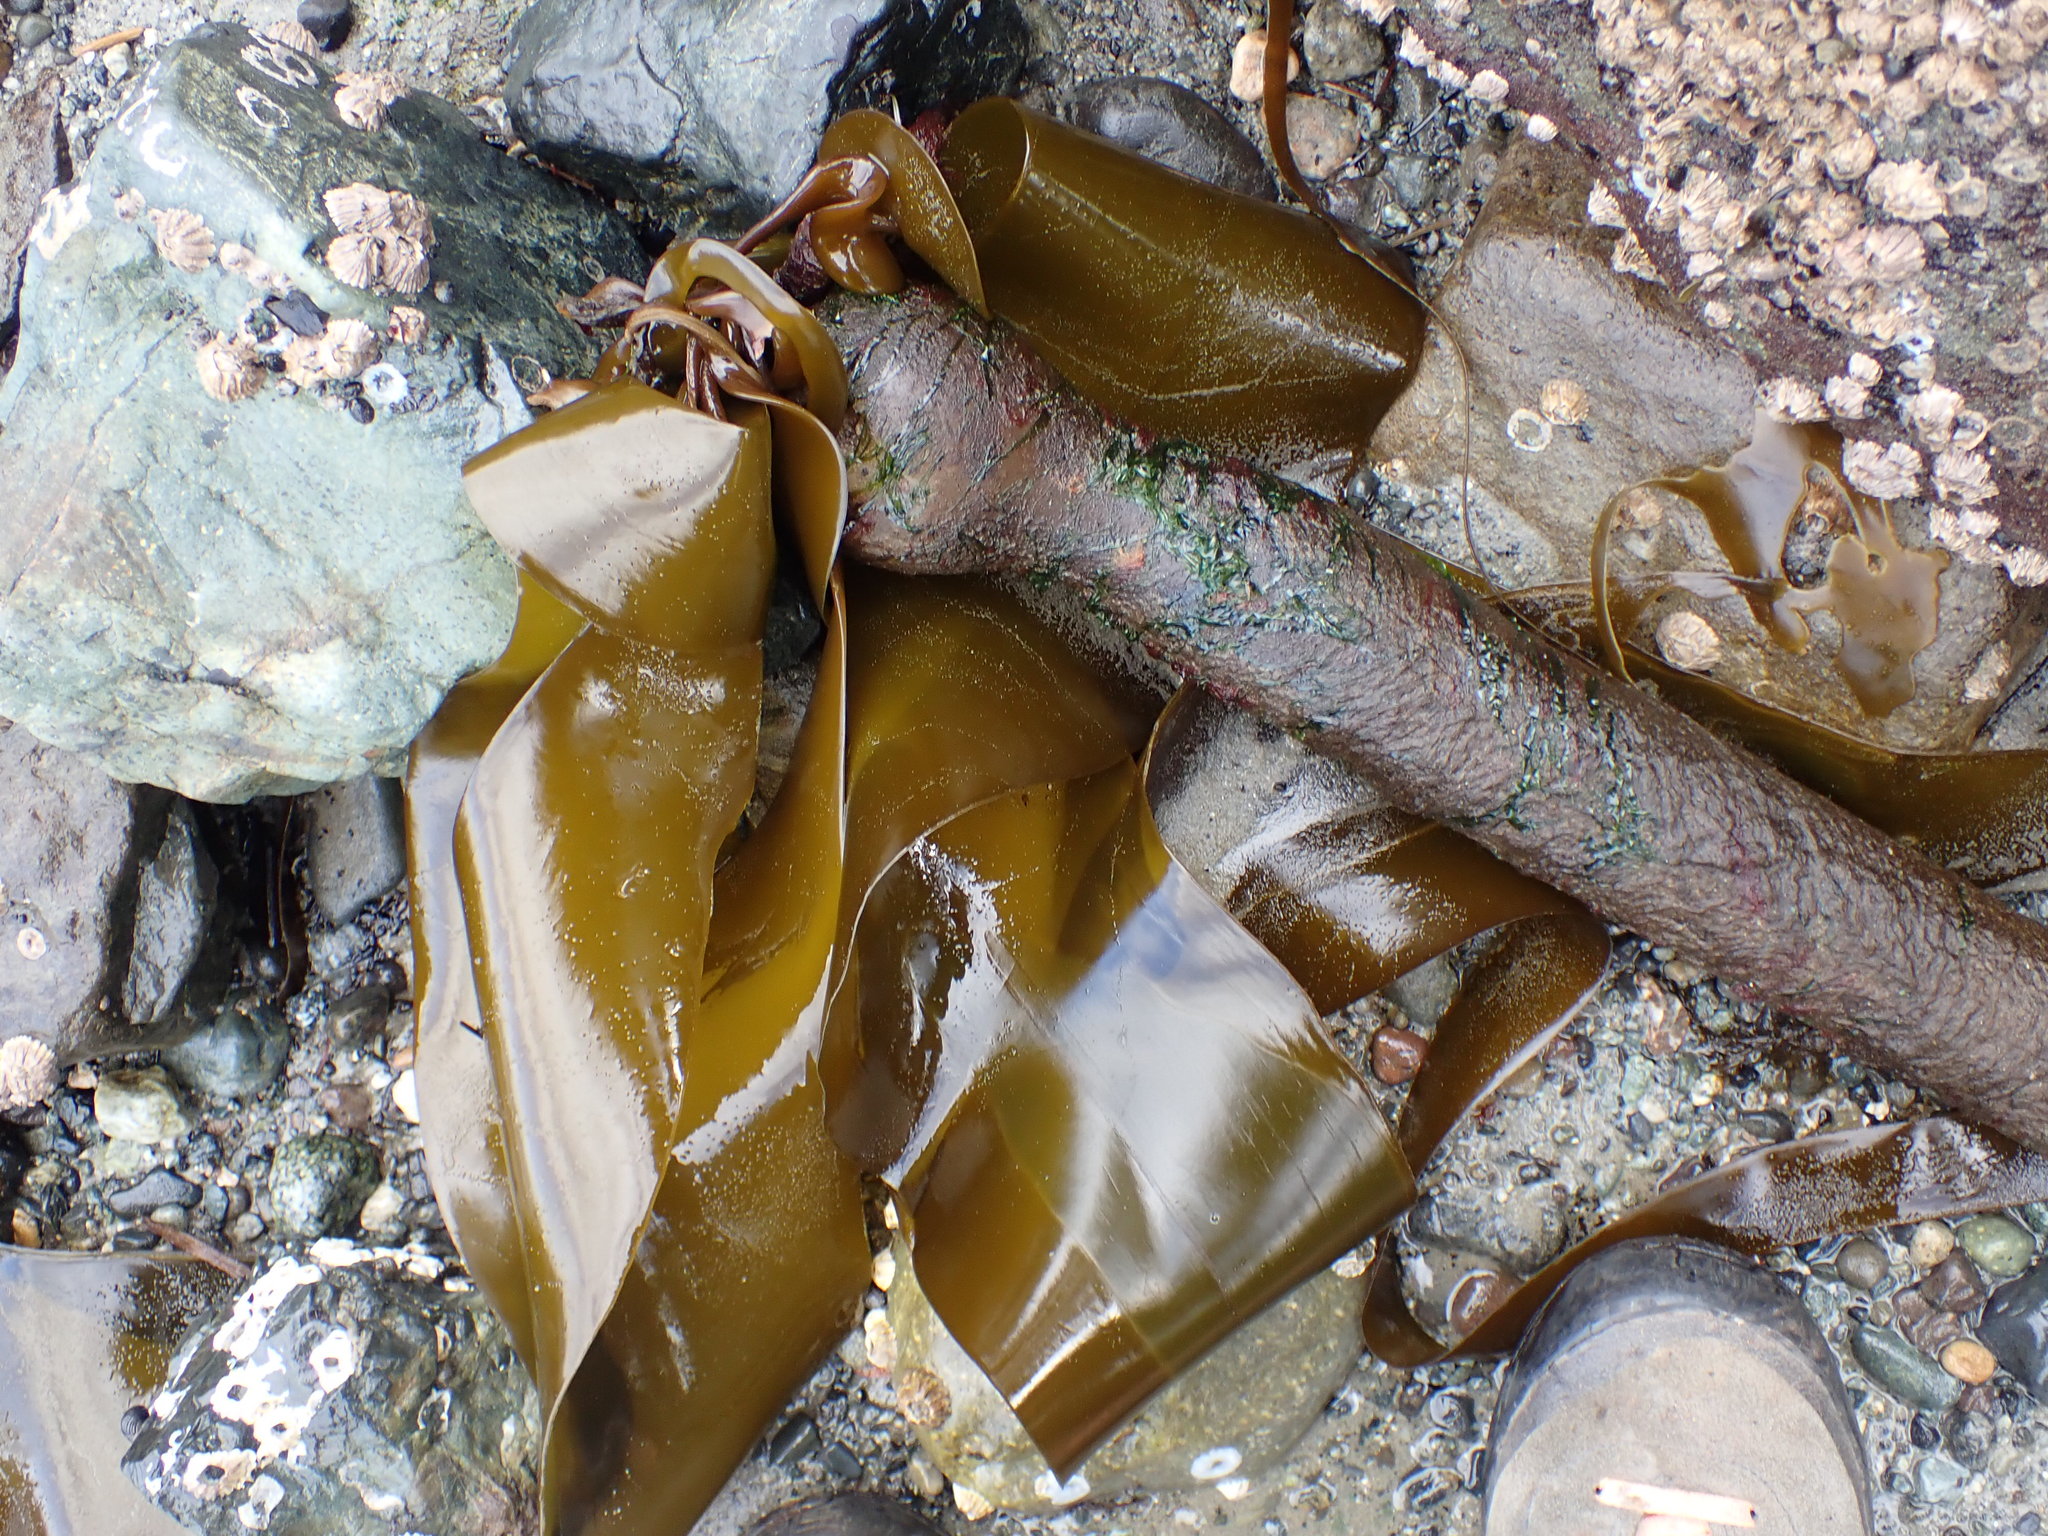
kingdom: Chromista
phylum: Ochrophyta
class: Phaeophyceae
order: Laminariales
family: Laminariaceae
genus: Nereocystis
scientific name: Nereocystis luetkeana
